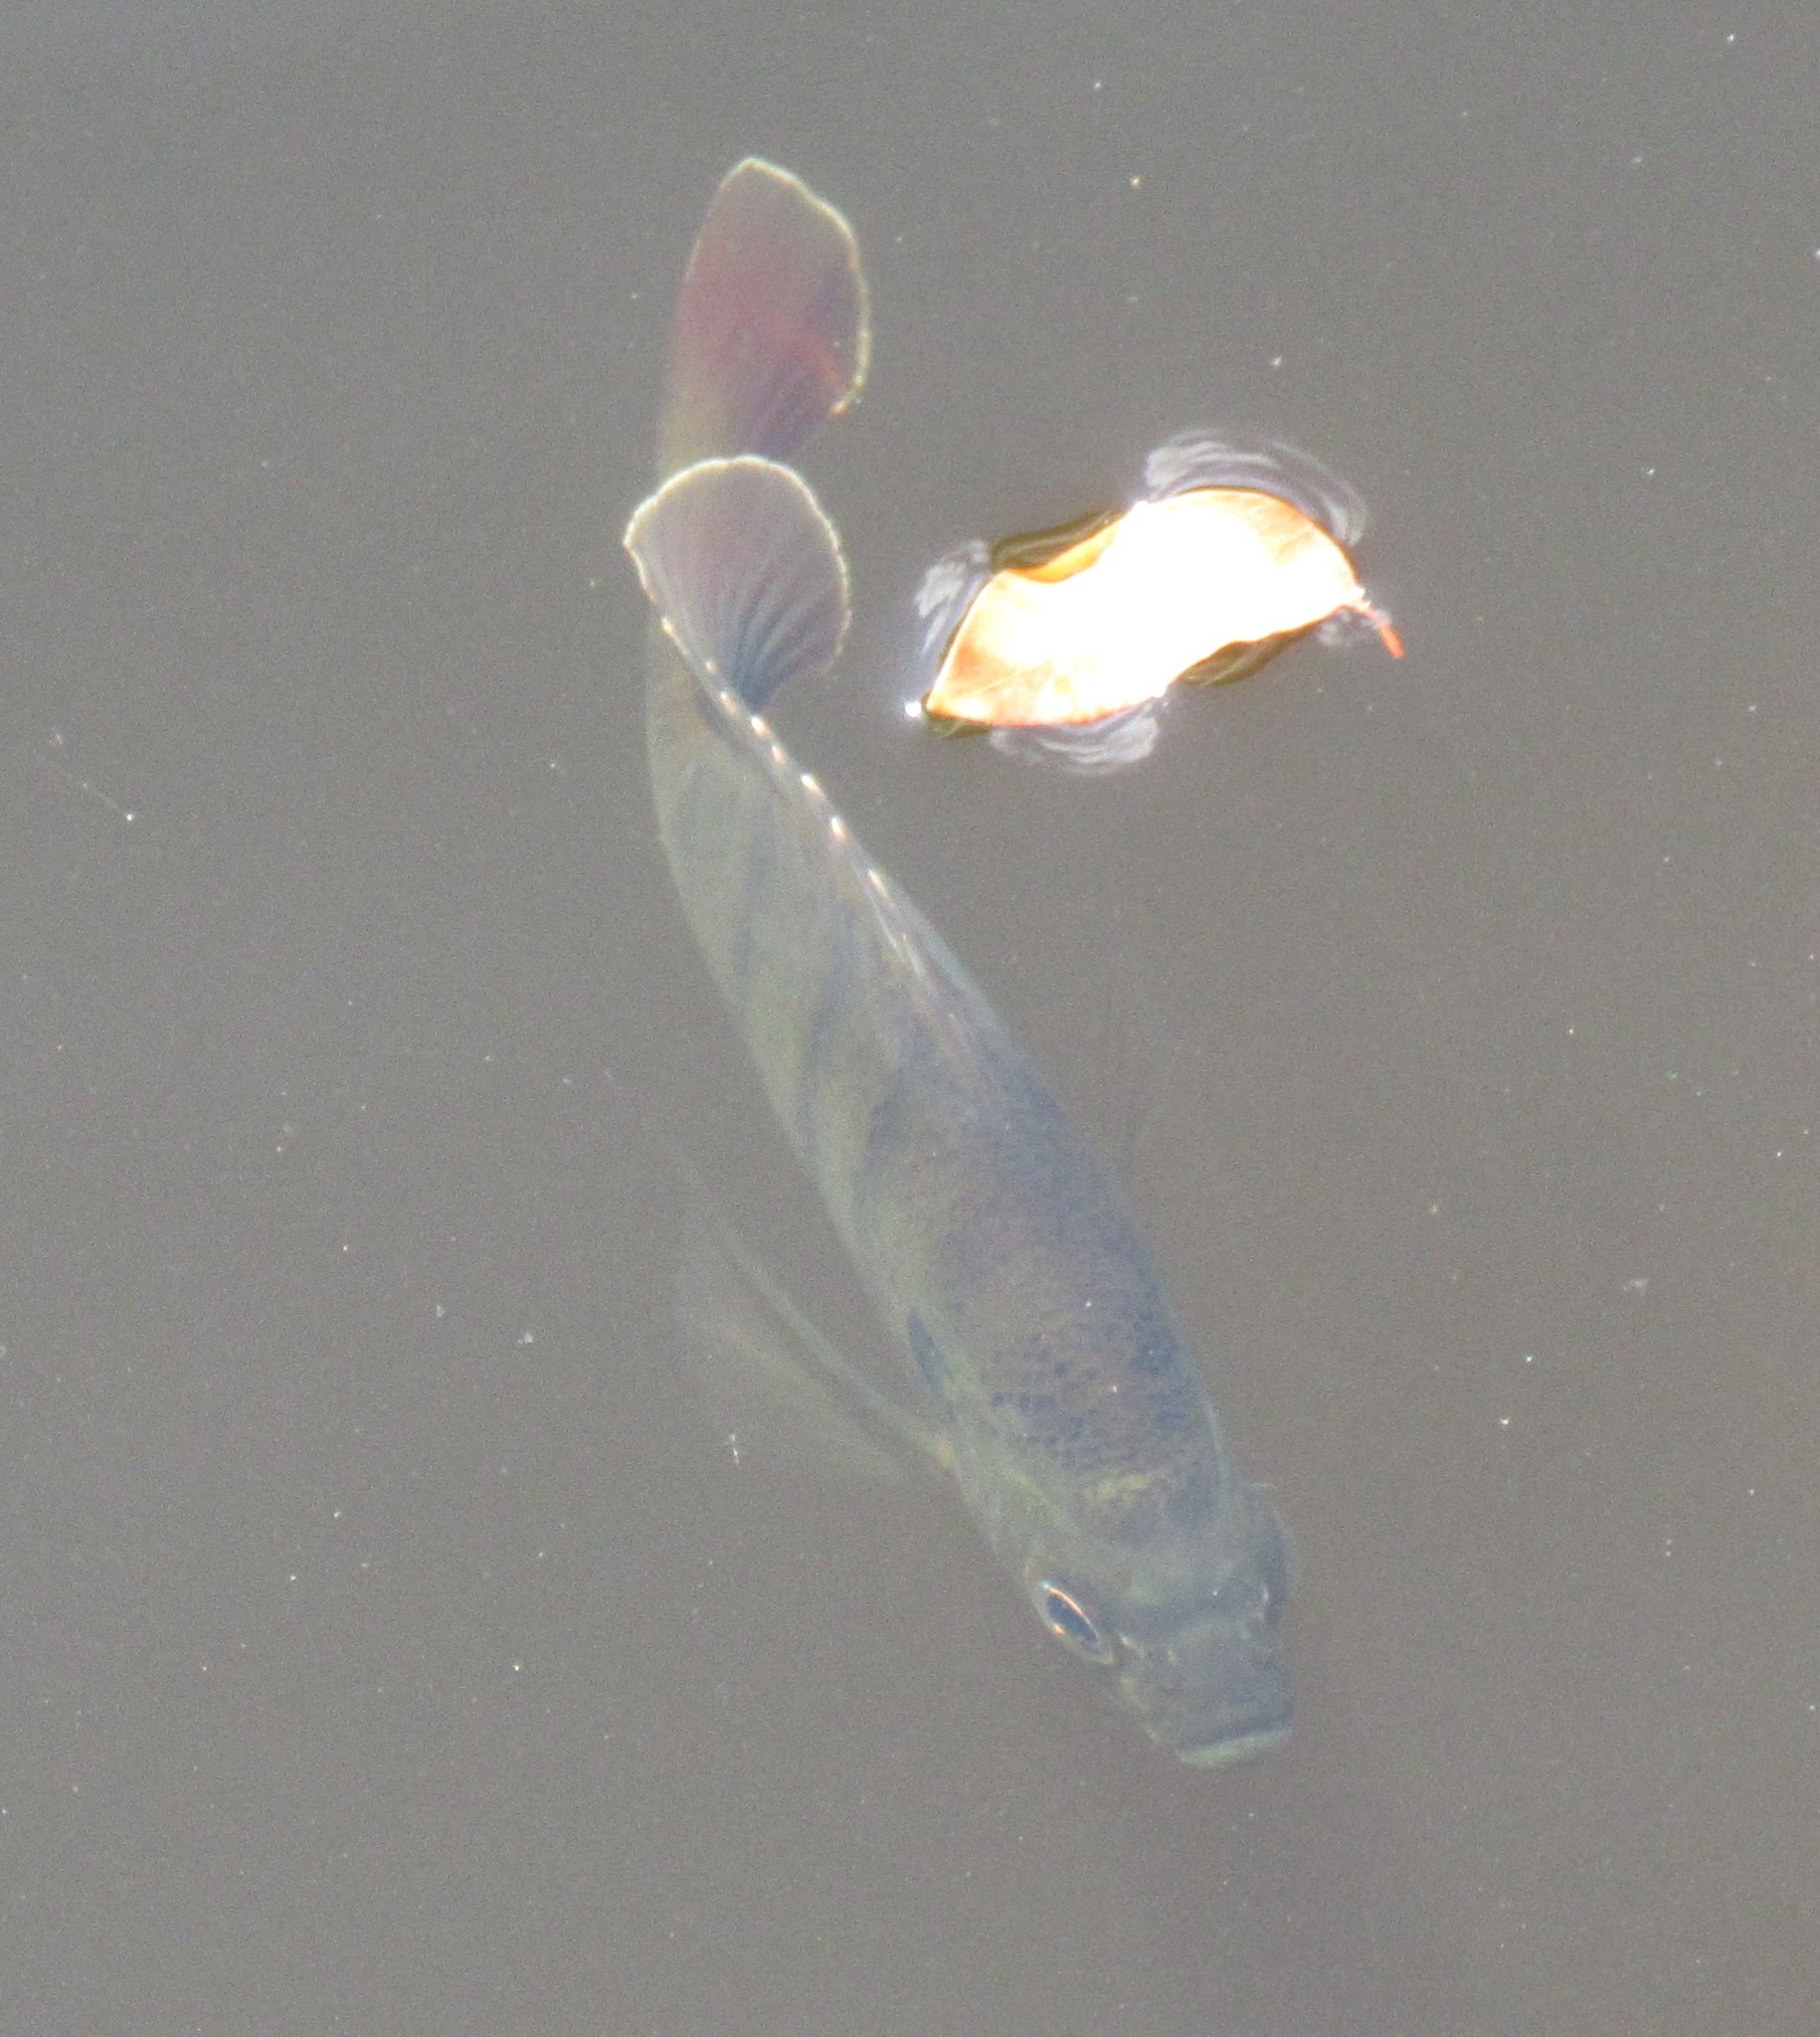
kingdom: Animalia
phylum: Chordata
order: Perciformes
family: Centrarchidae
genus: Lepomis
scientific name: Lepomis macrochirus
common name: Bluegill
